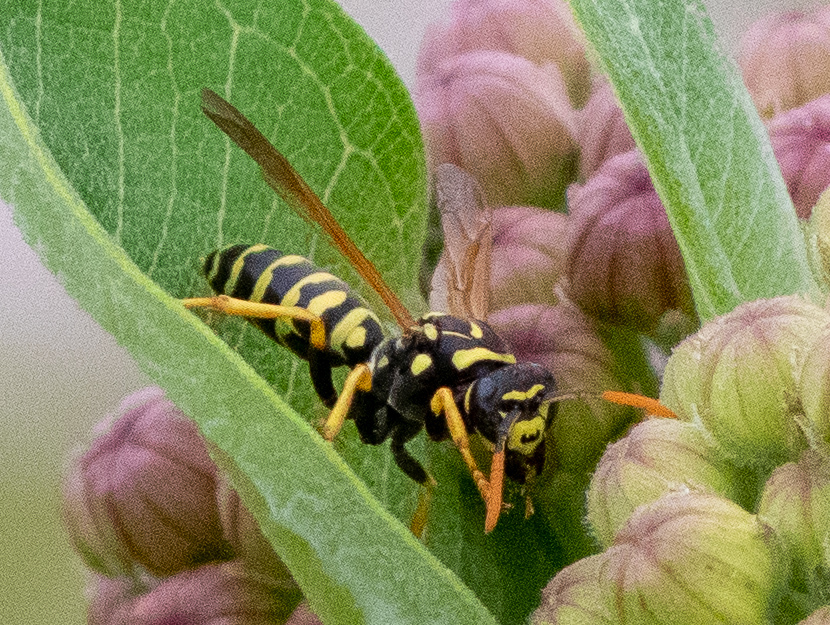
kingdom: Animalia
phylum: Arthropoda
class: Insecta
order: Hymenoptera
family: Eumenidae
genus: Polistes
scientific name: Polistes dominula
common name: Paper wasp
